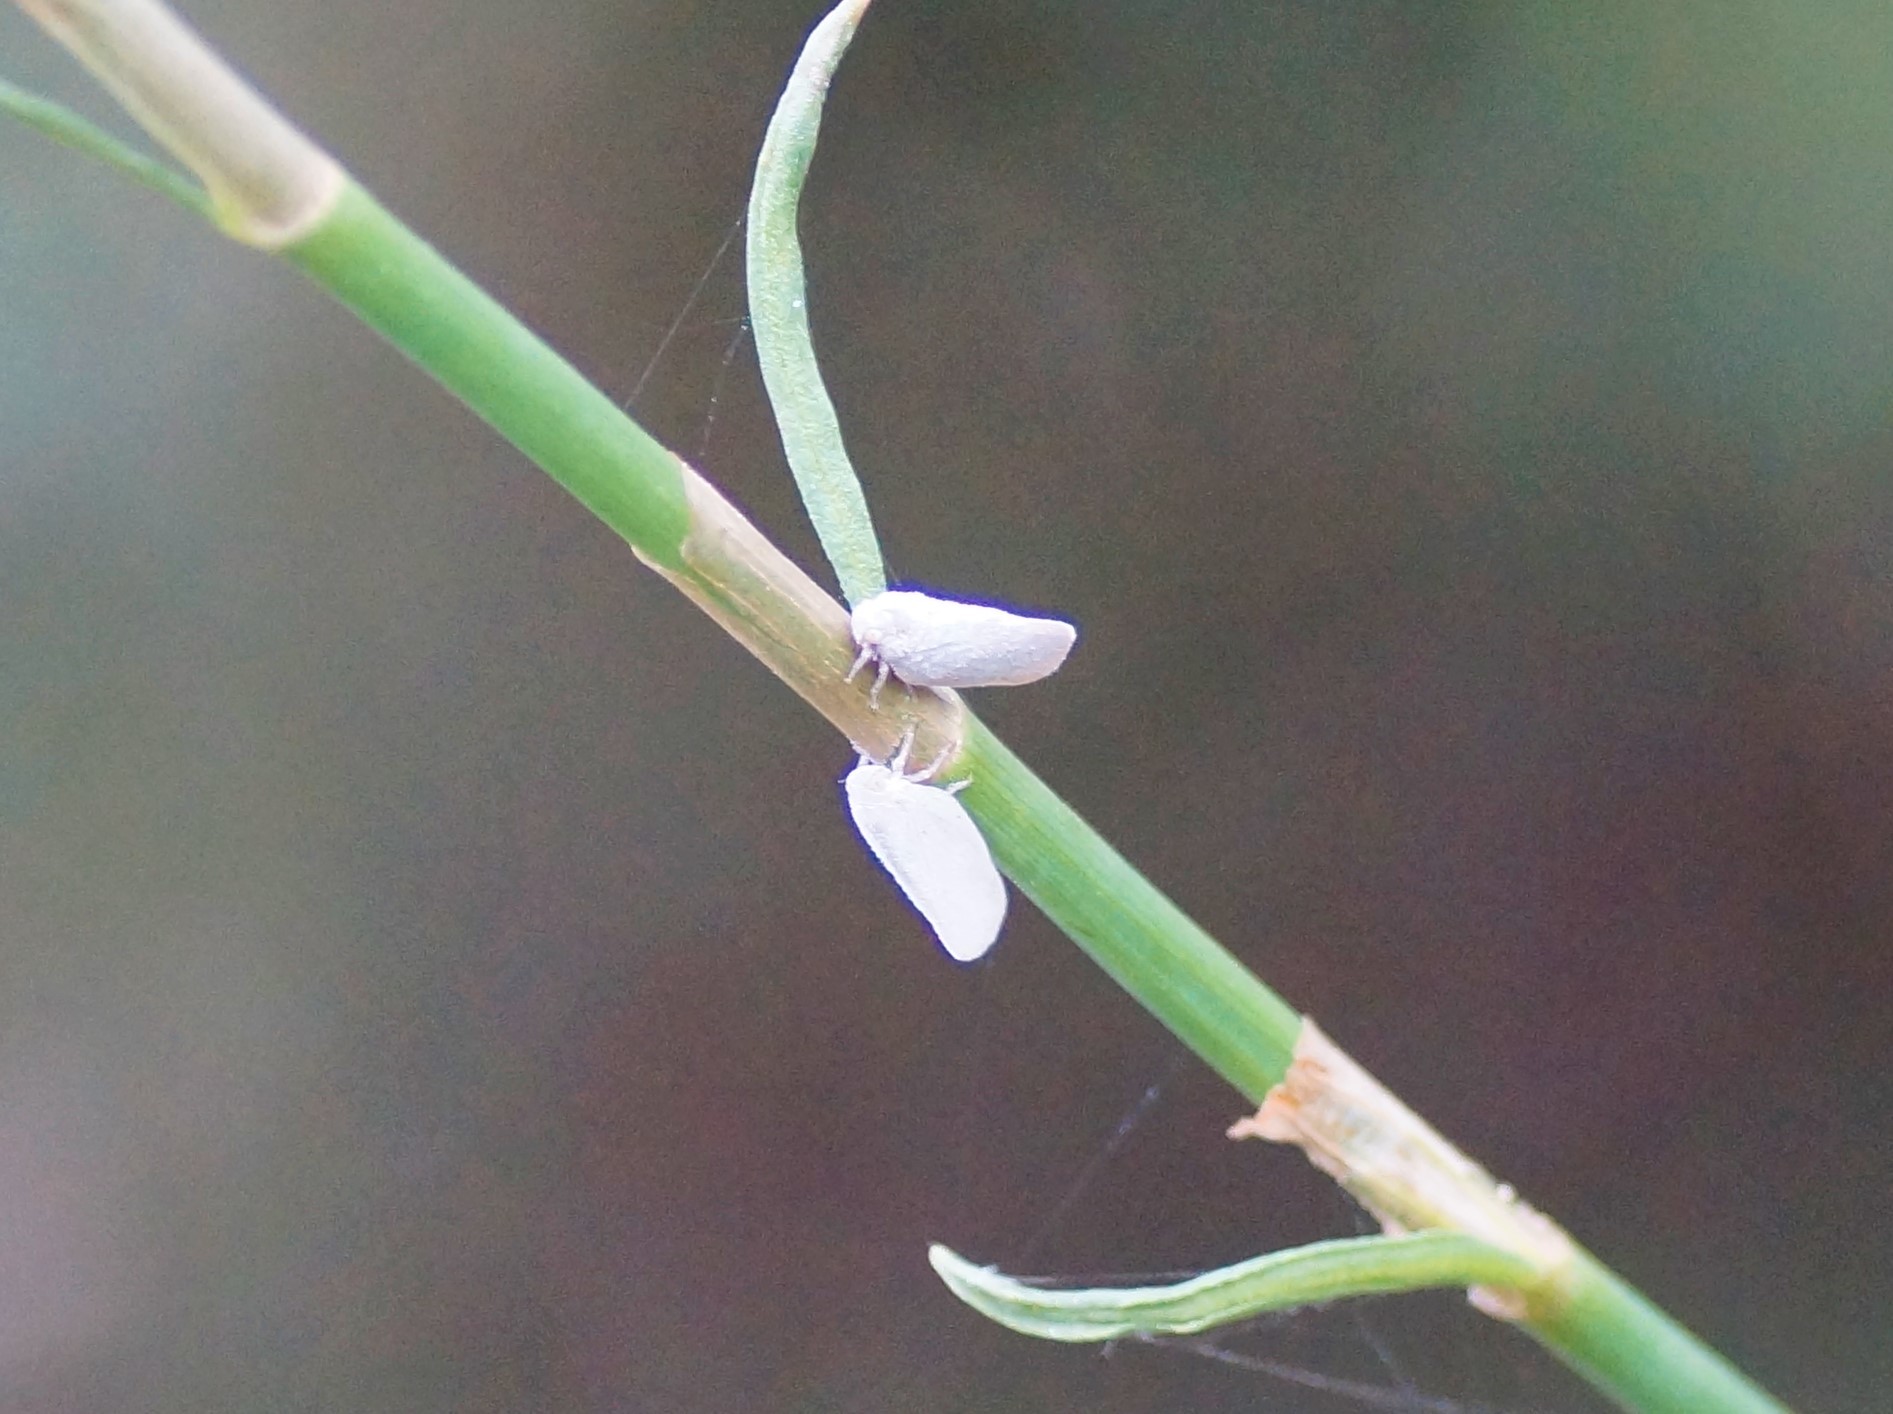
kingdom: Animalia
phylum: Arthropoda
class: Insecta
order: Hemiptera
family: Flatidae
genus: Anzora
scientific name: Anzora unicolor
